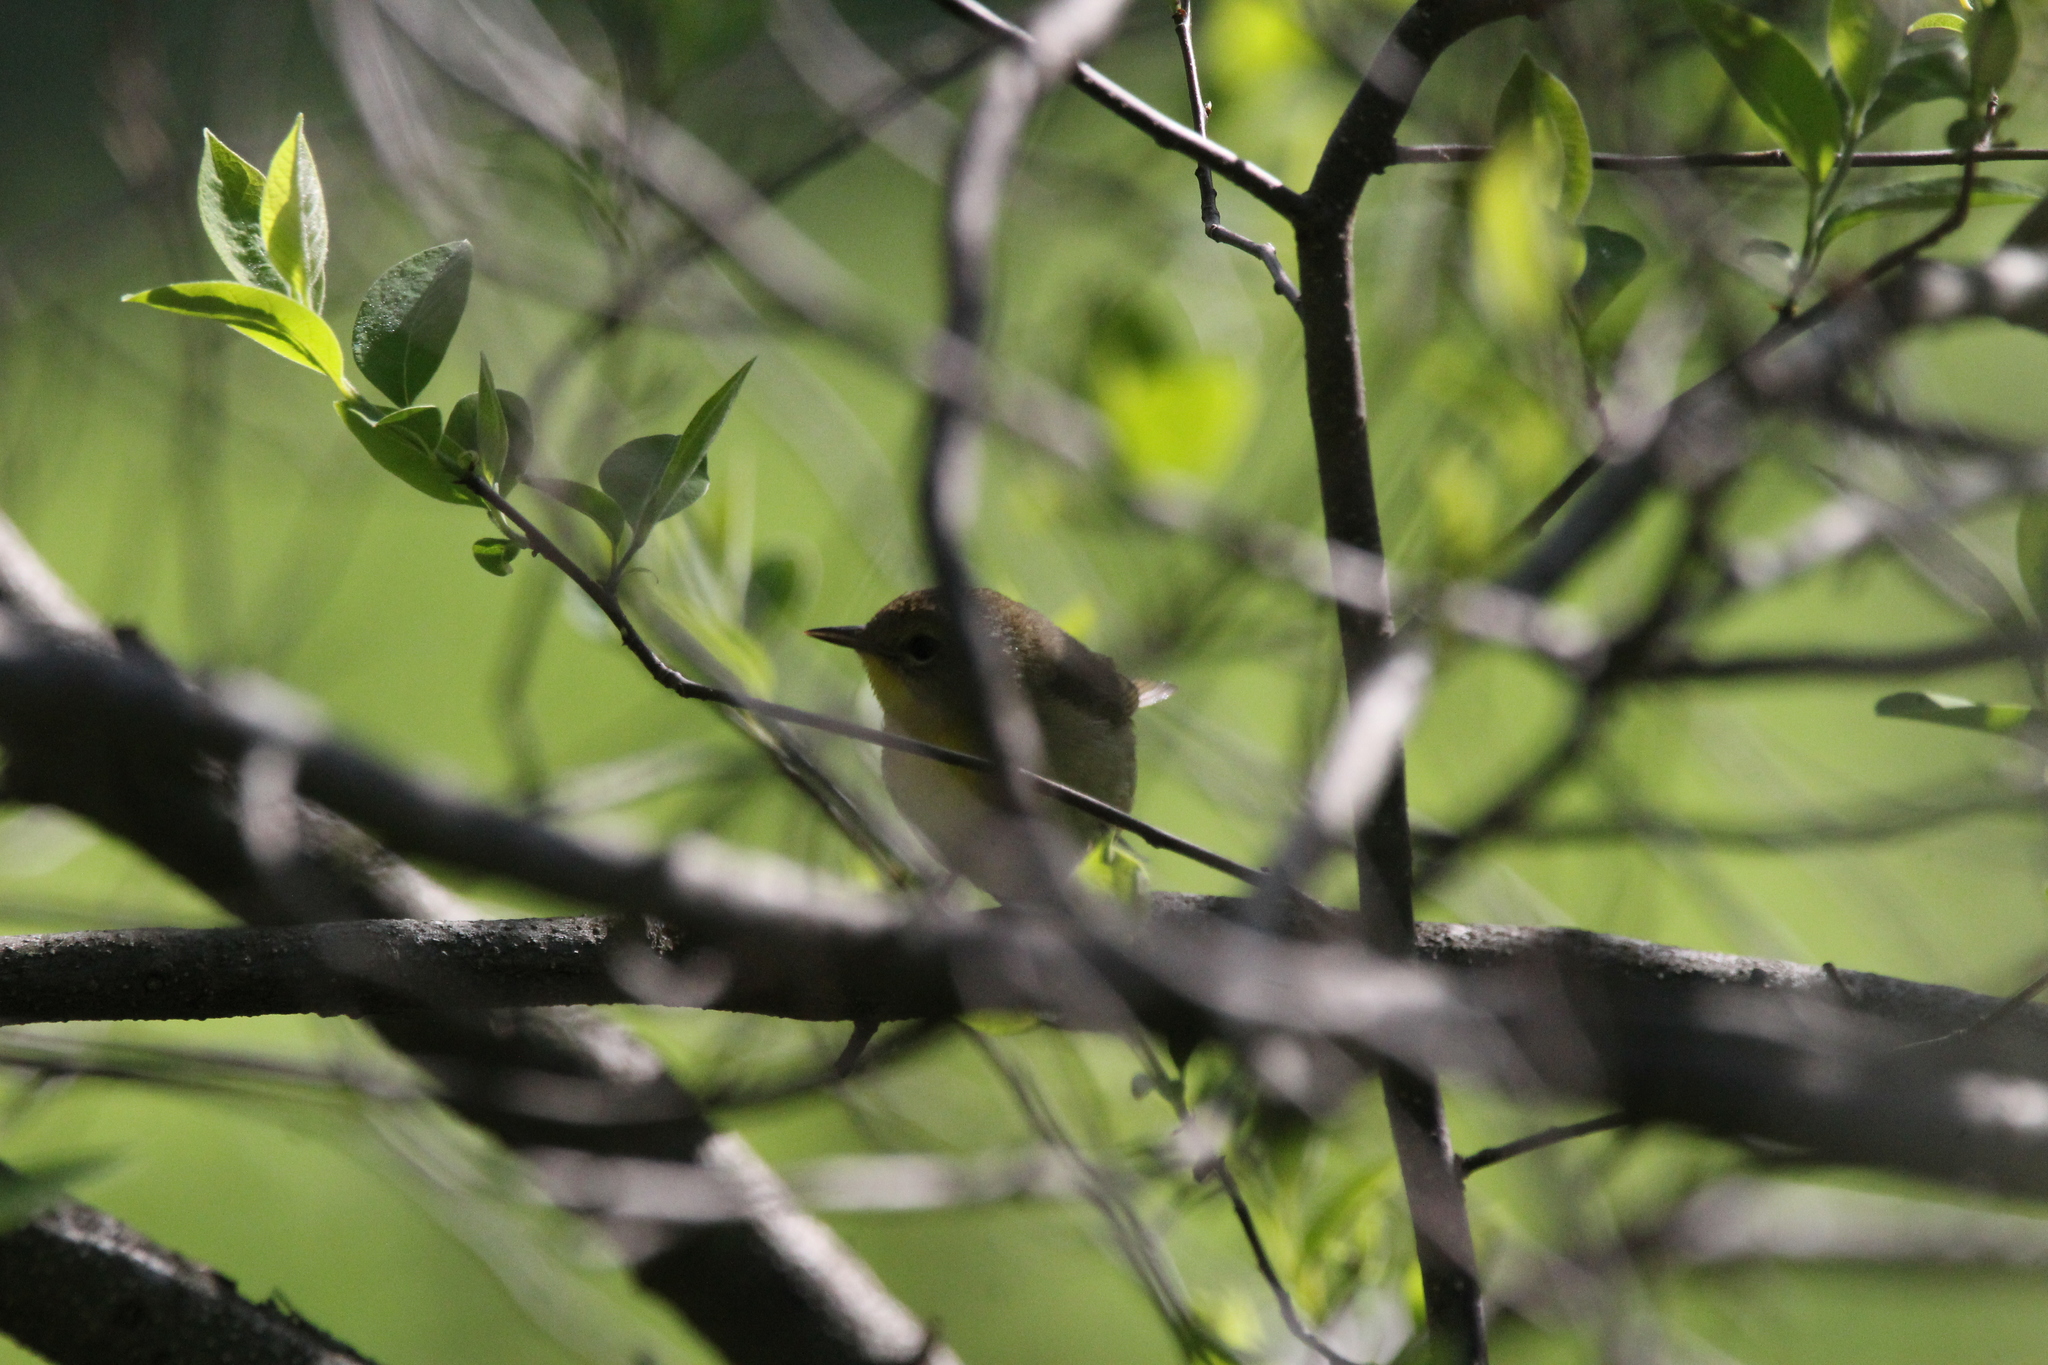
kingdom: Animalia
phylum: Chordata
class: Aves
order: Passeriformes
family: Parulidae
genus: Geothlypis
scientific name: Geothlypis trichas
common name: Common yellowthroat
